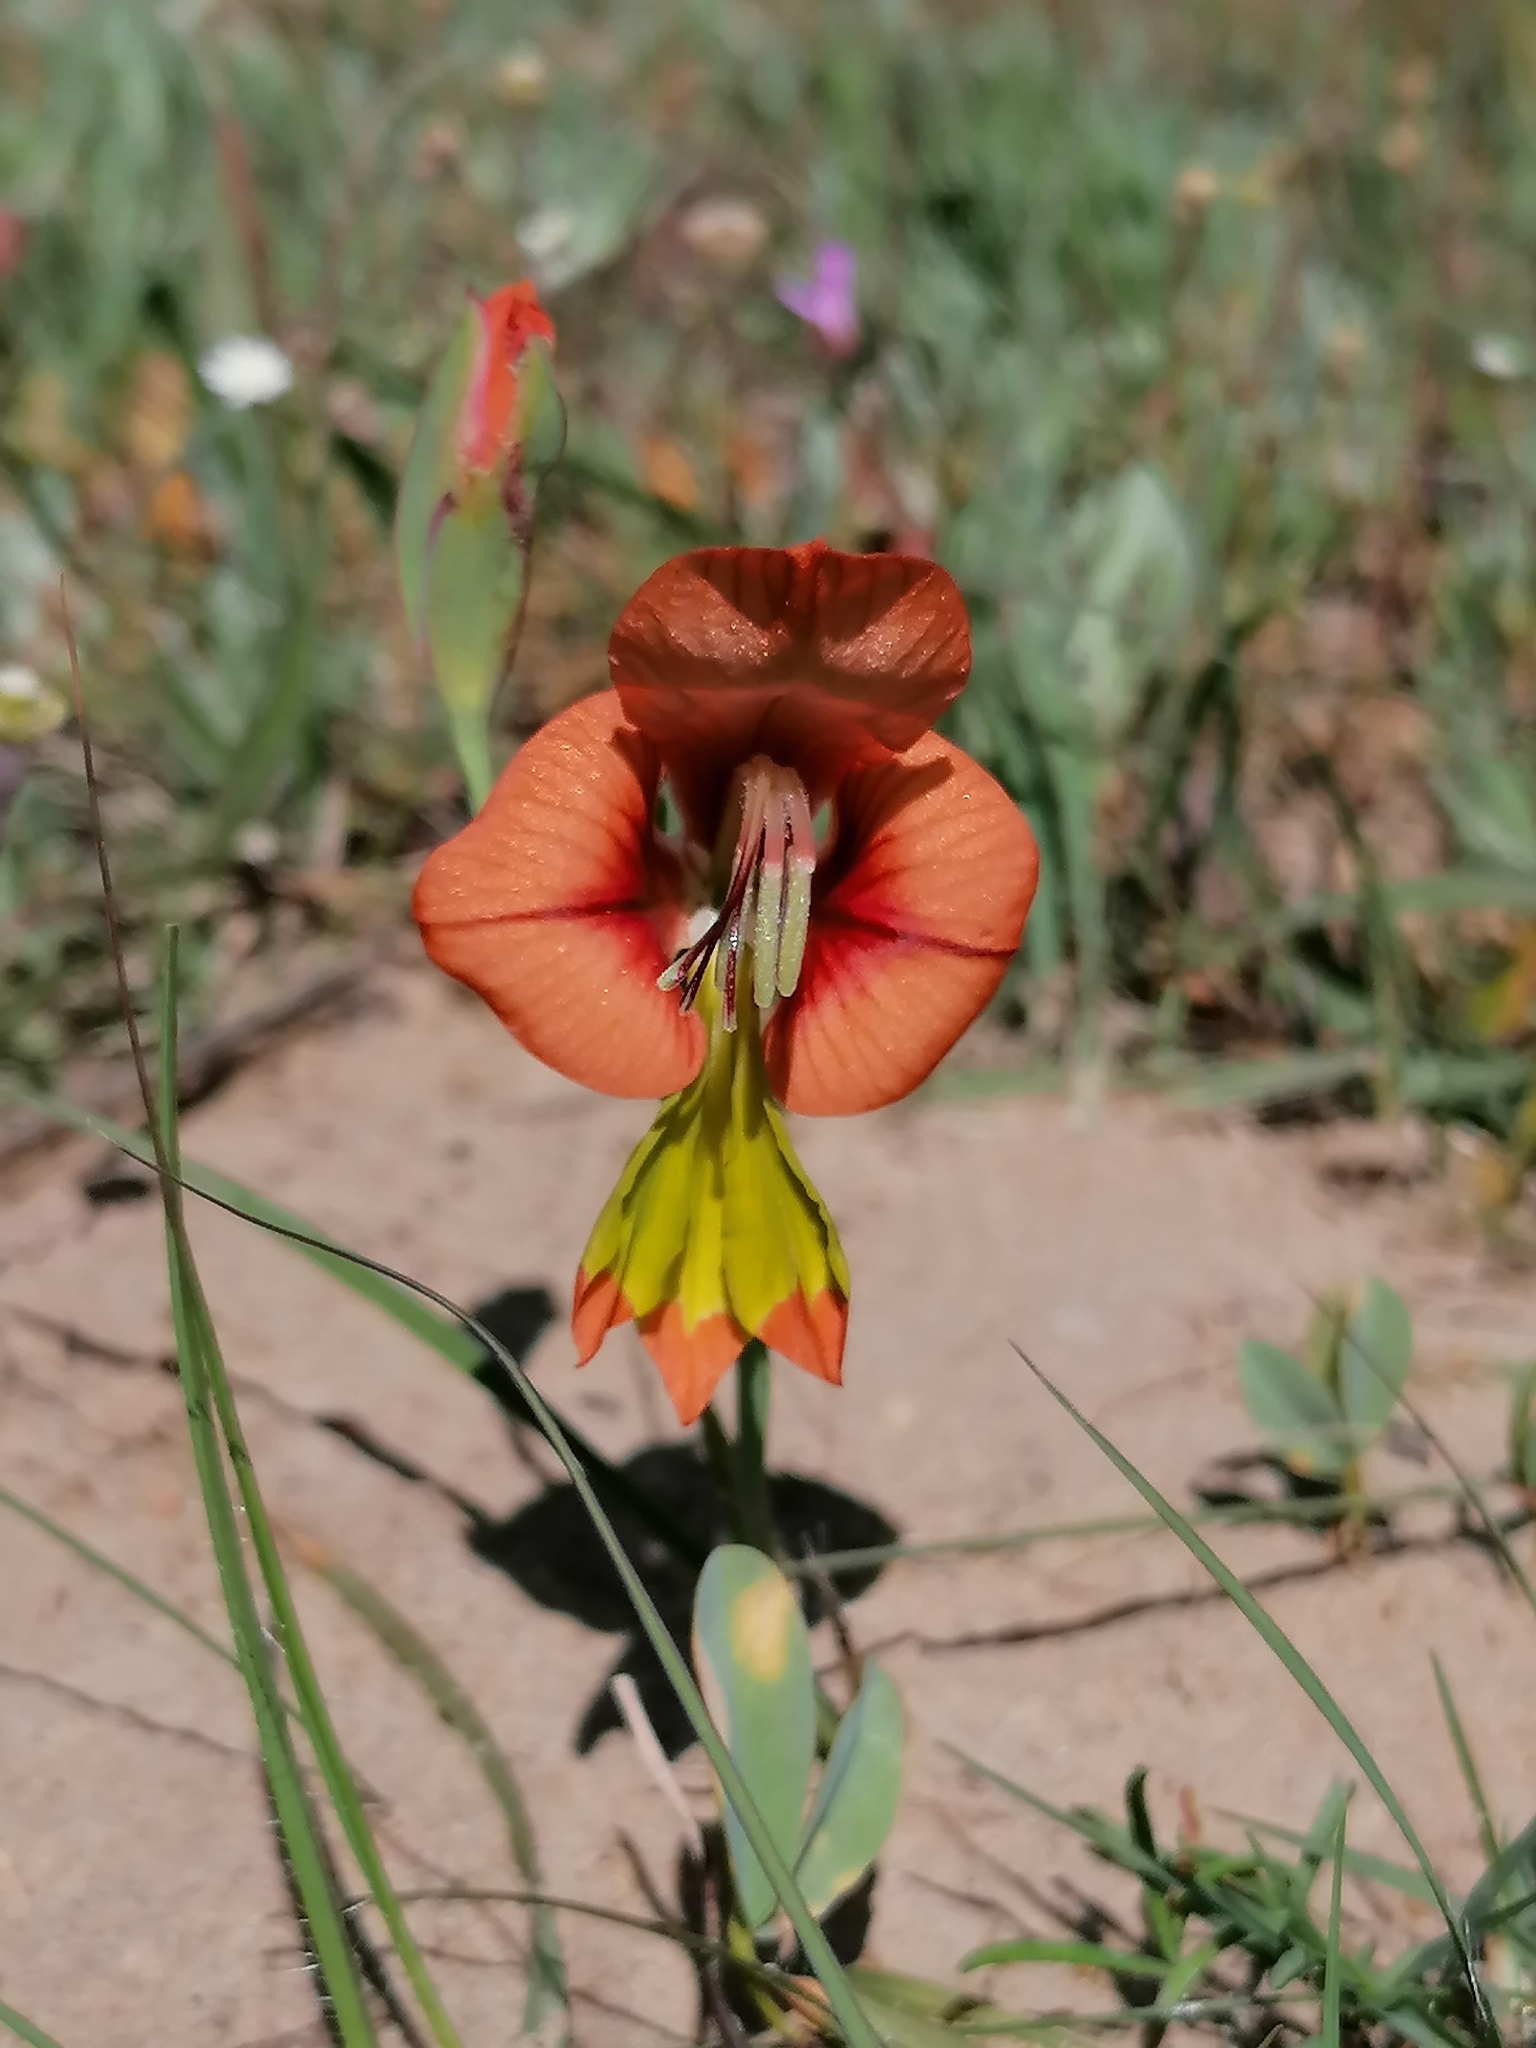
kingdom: Plantae
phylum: Tracheophyta
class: Liliopsida
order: Asparagales
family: Iridaceae
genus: Gladiolus
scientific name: Gladiolus alatus
